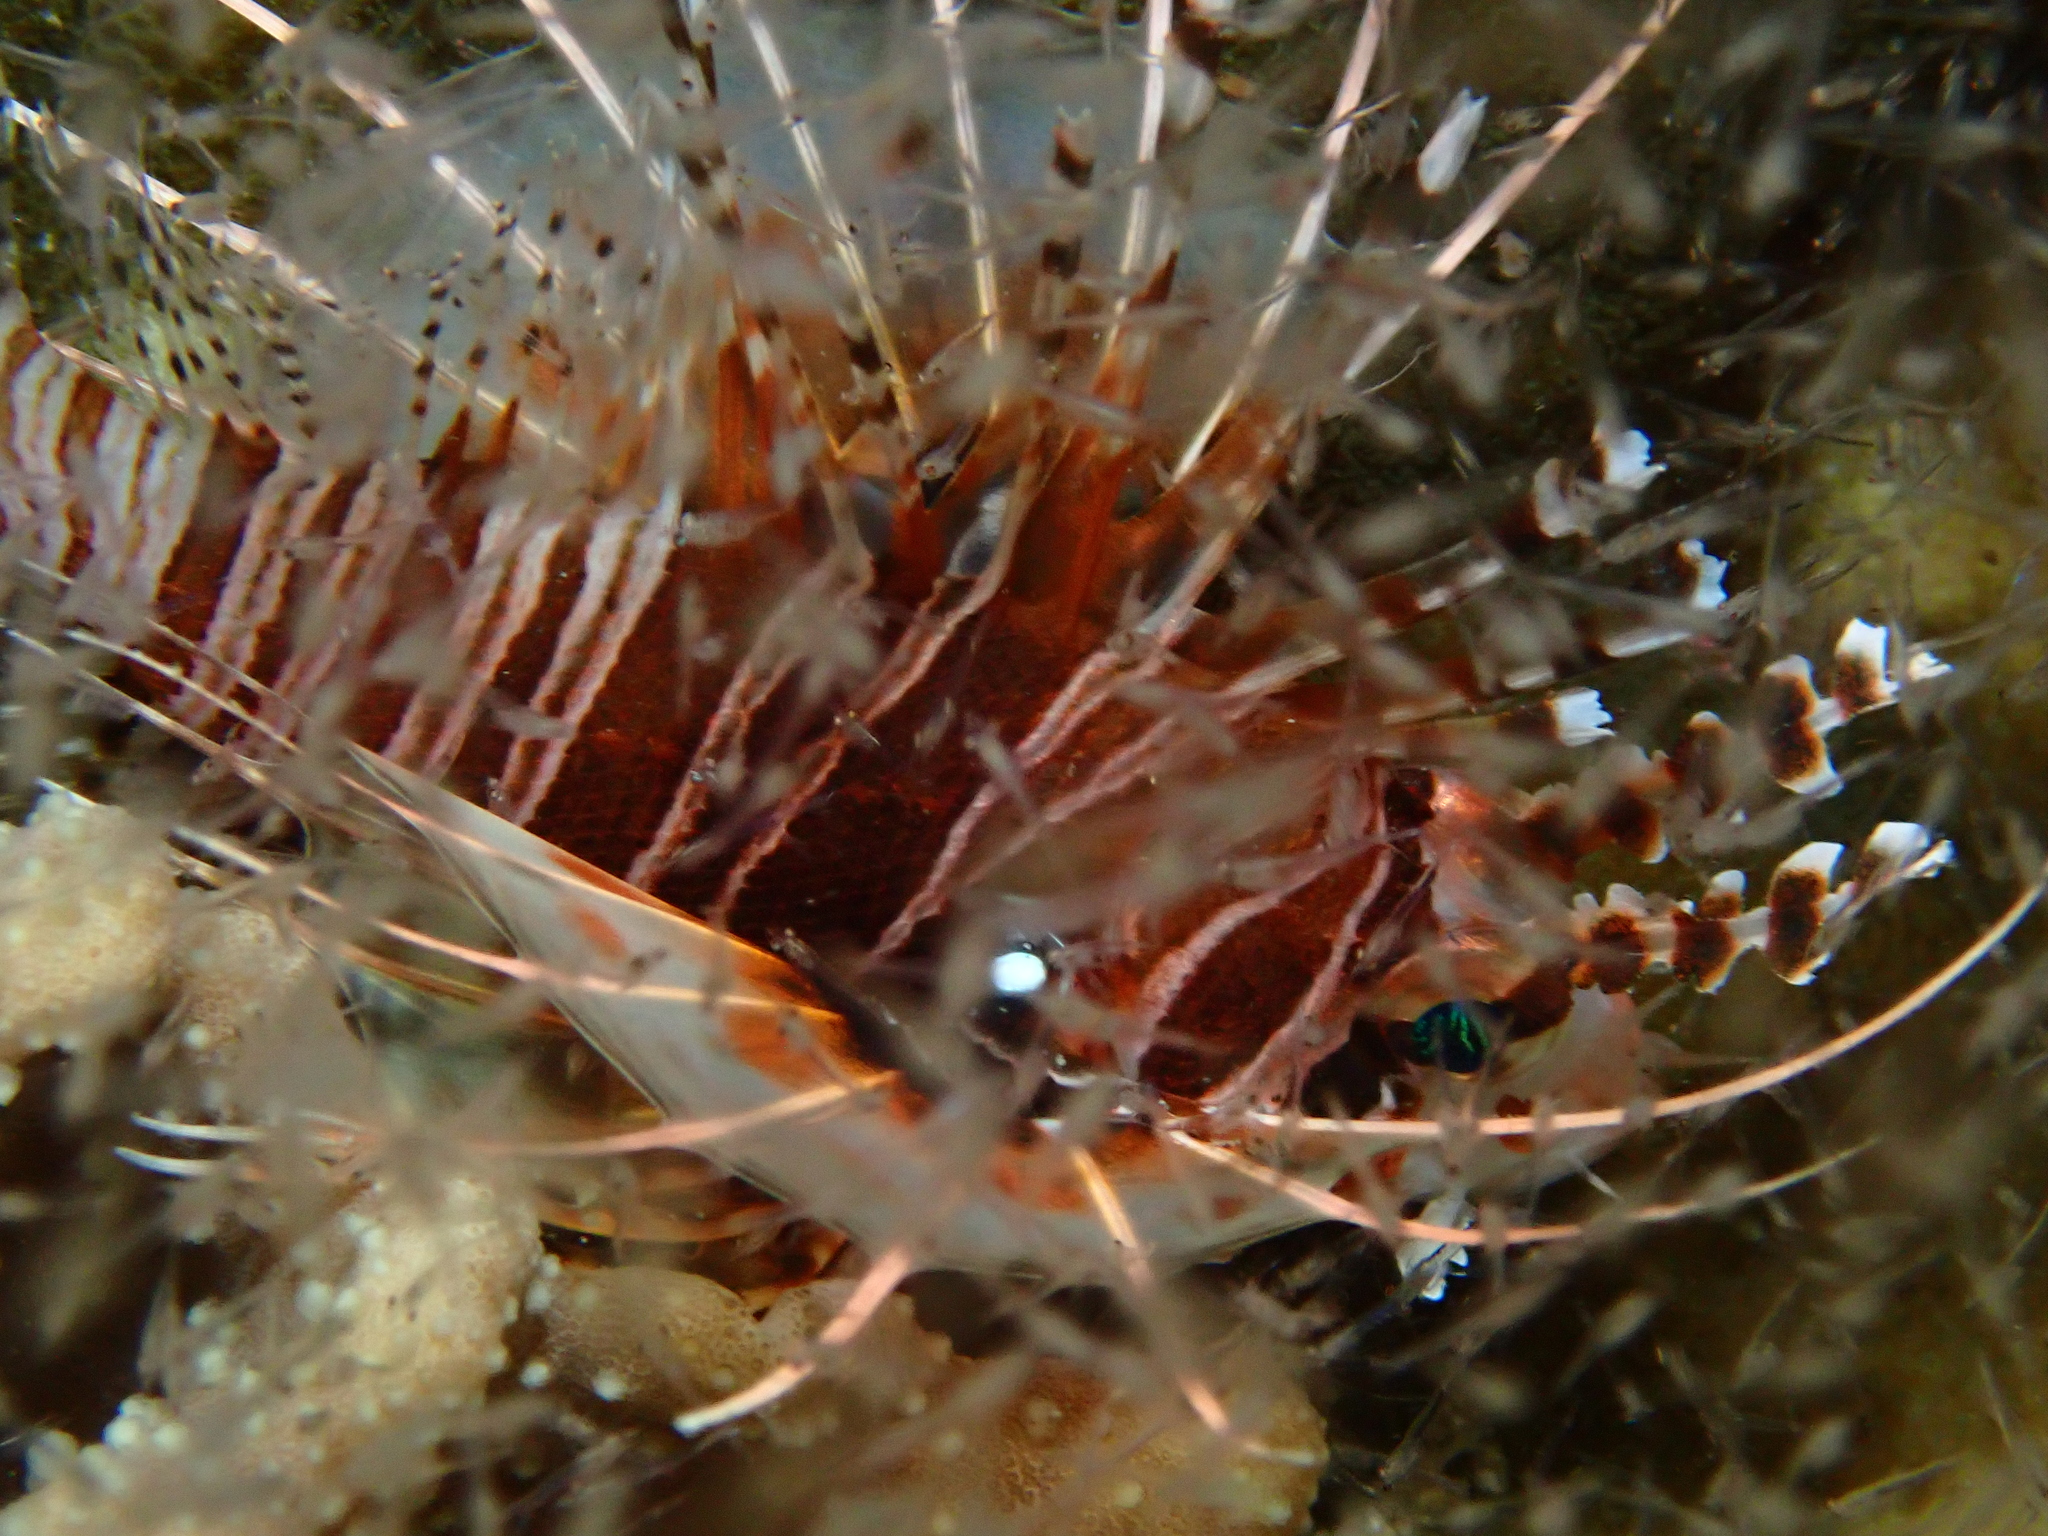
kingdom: Animalia
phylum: Chordata
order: Scorpaeniformes
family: Scorpaenidae
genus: Pterois
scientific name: Pterois antennata
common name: Spotfin lionfish
